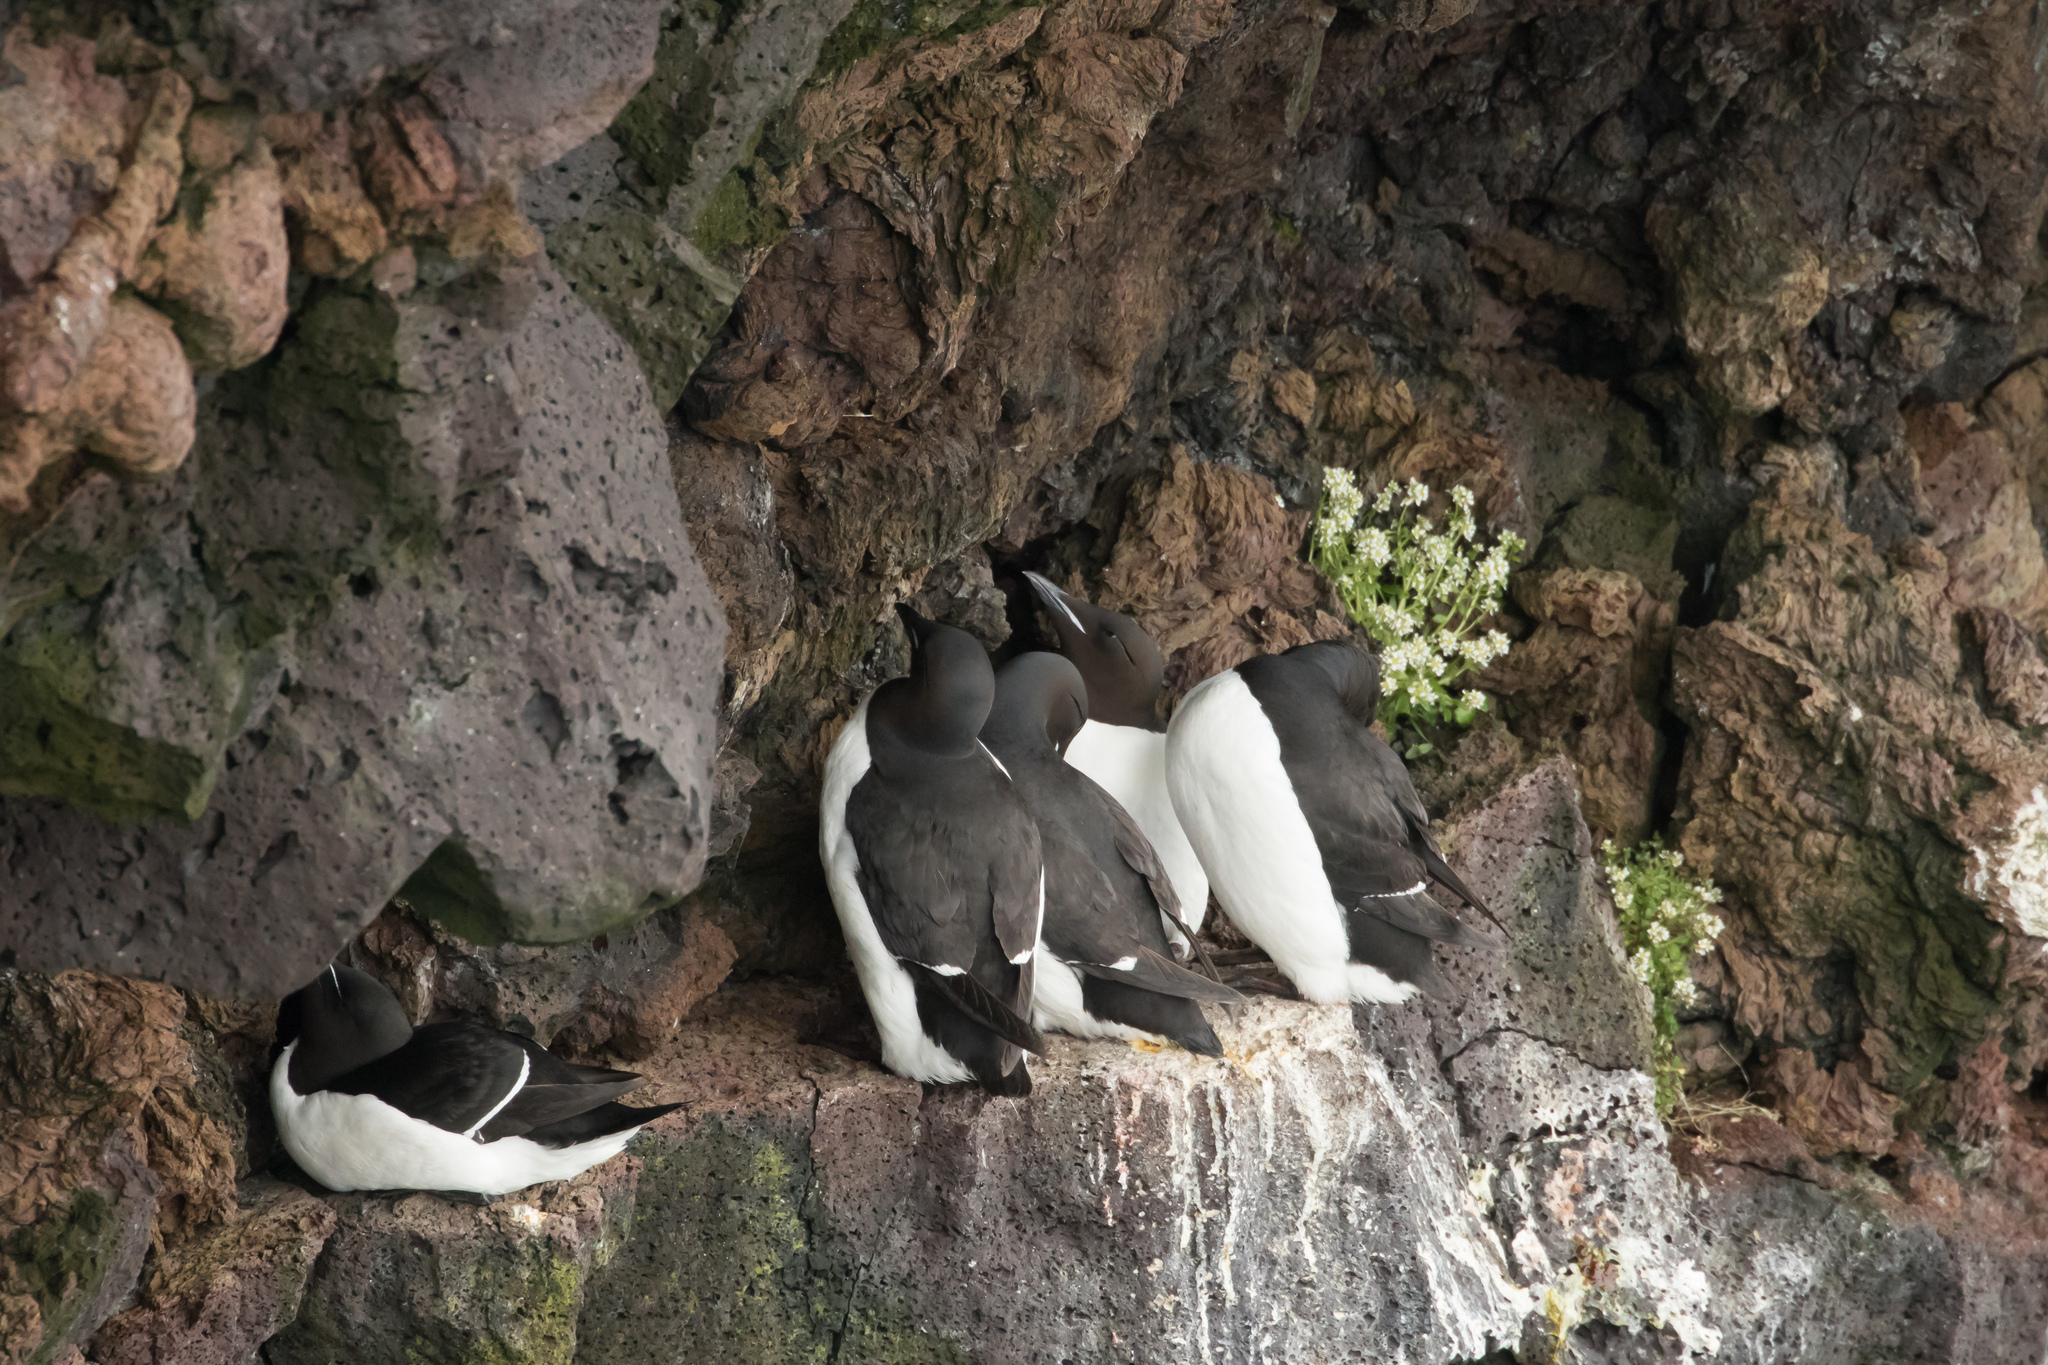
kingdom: Animalia
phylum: Chordata
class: Aves
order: Charadriiformes
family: Alcidae
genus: Uria
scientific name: Uria lomvia
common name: Thick-billed murre
